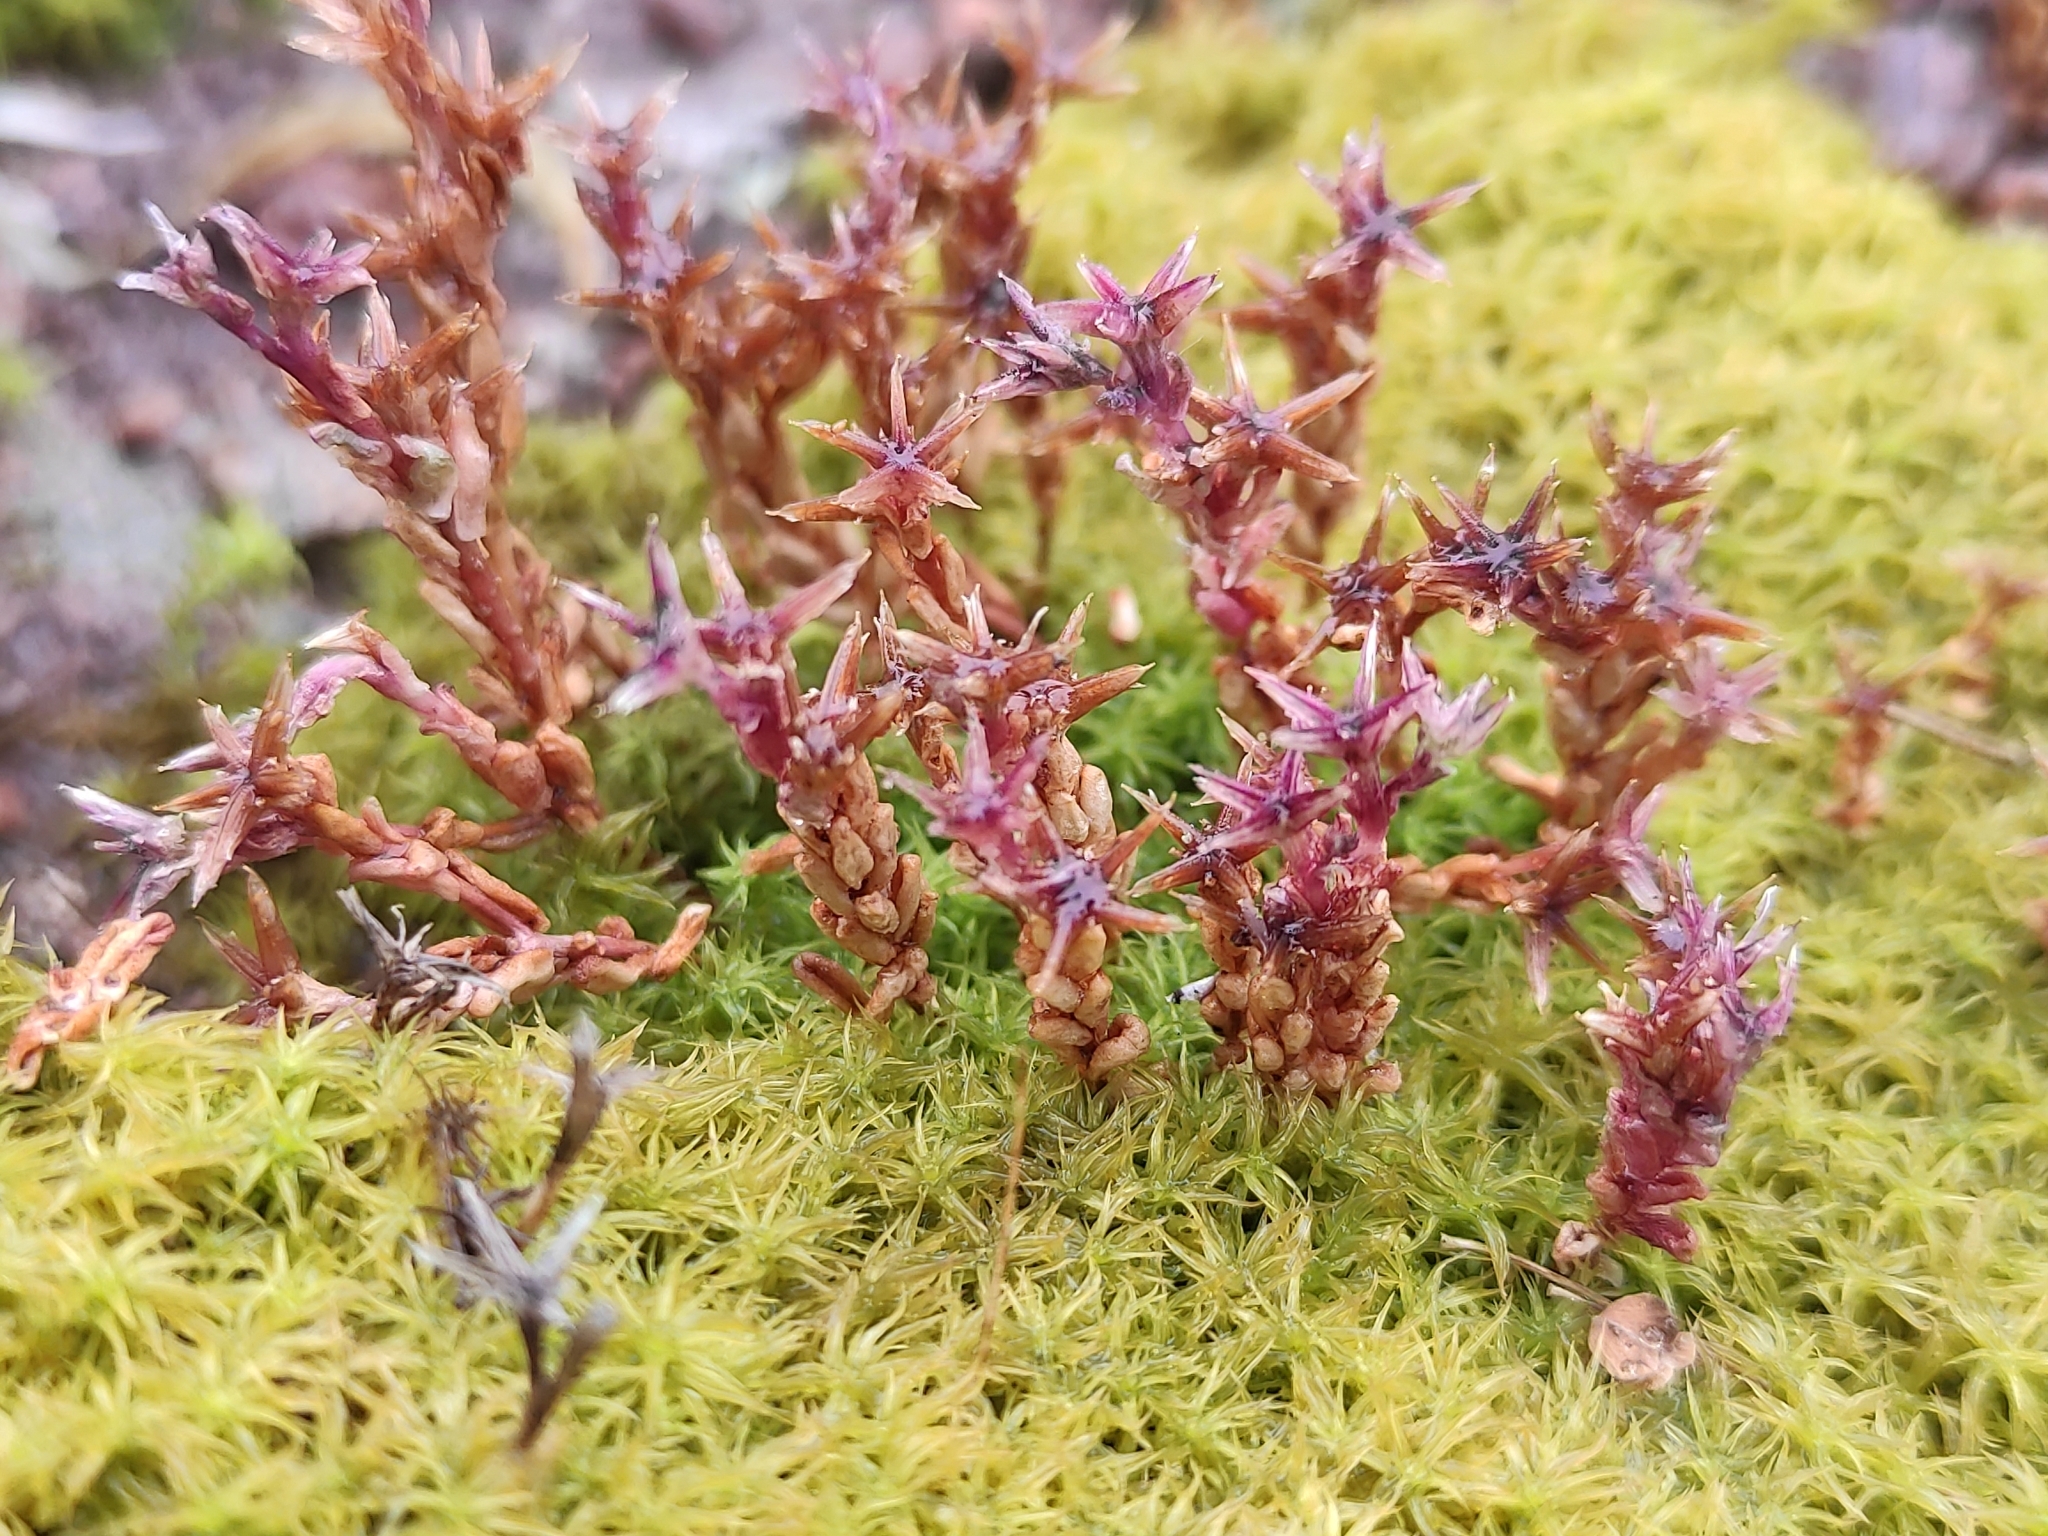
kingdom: Plantae
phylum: Tracheophyta
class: Magnoliopsida
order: Saxifragales
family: Crassulaceae
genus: Sedum
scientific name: Sedum cespitosum
